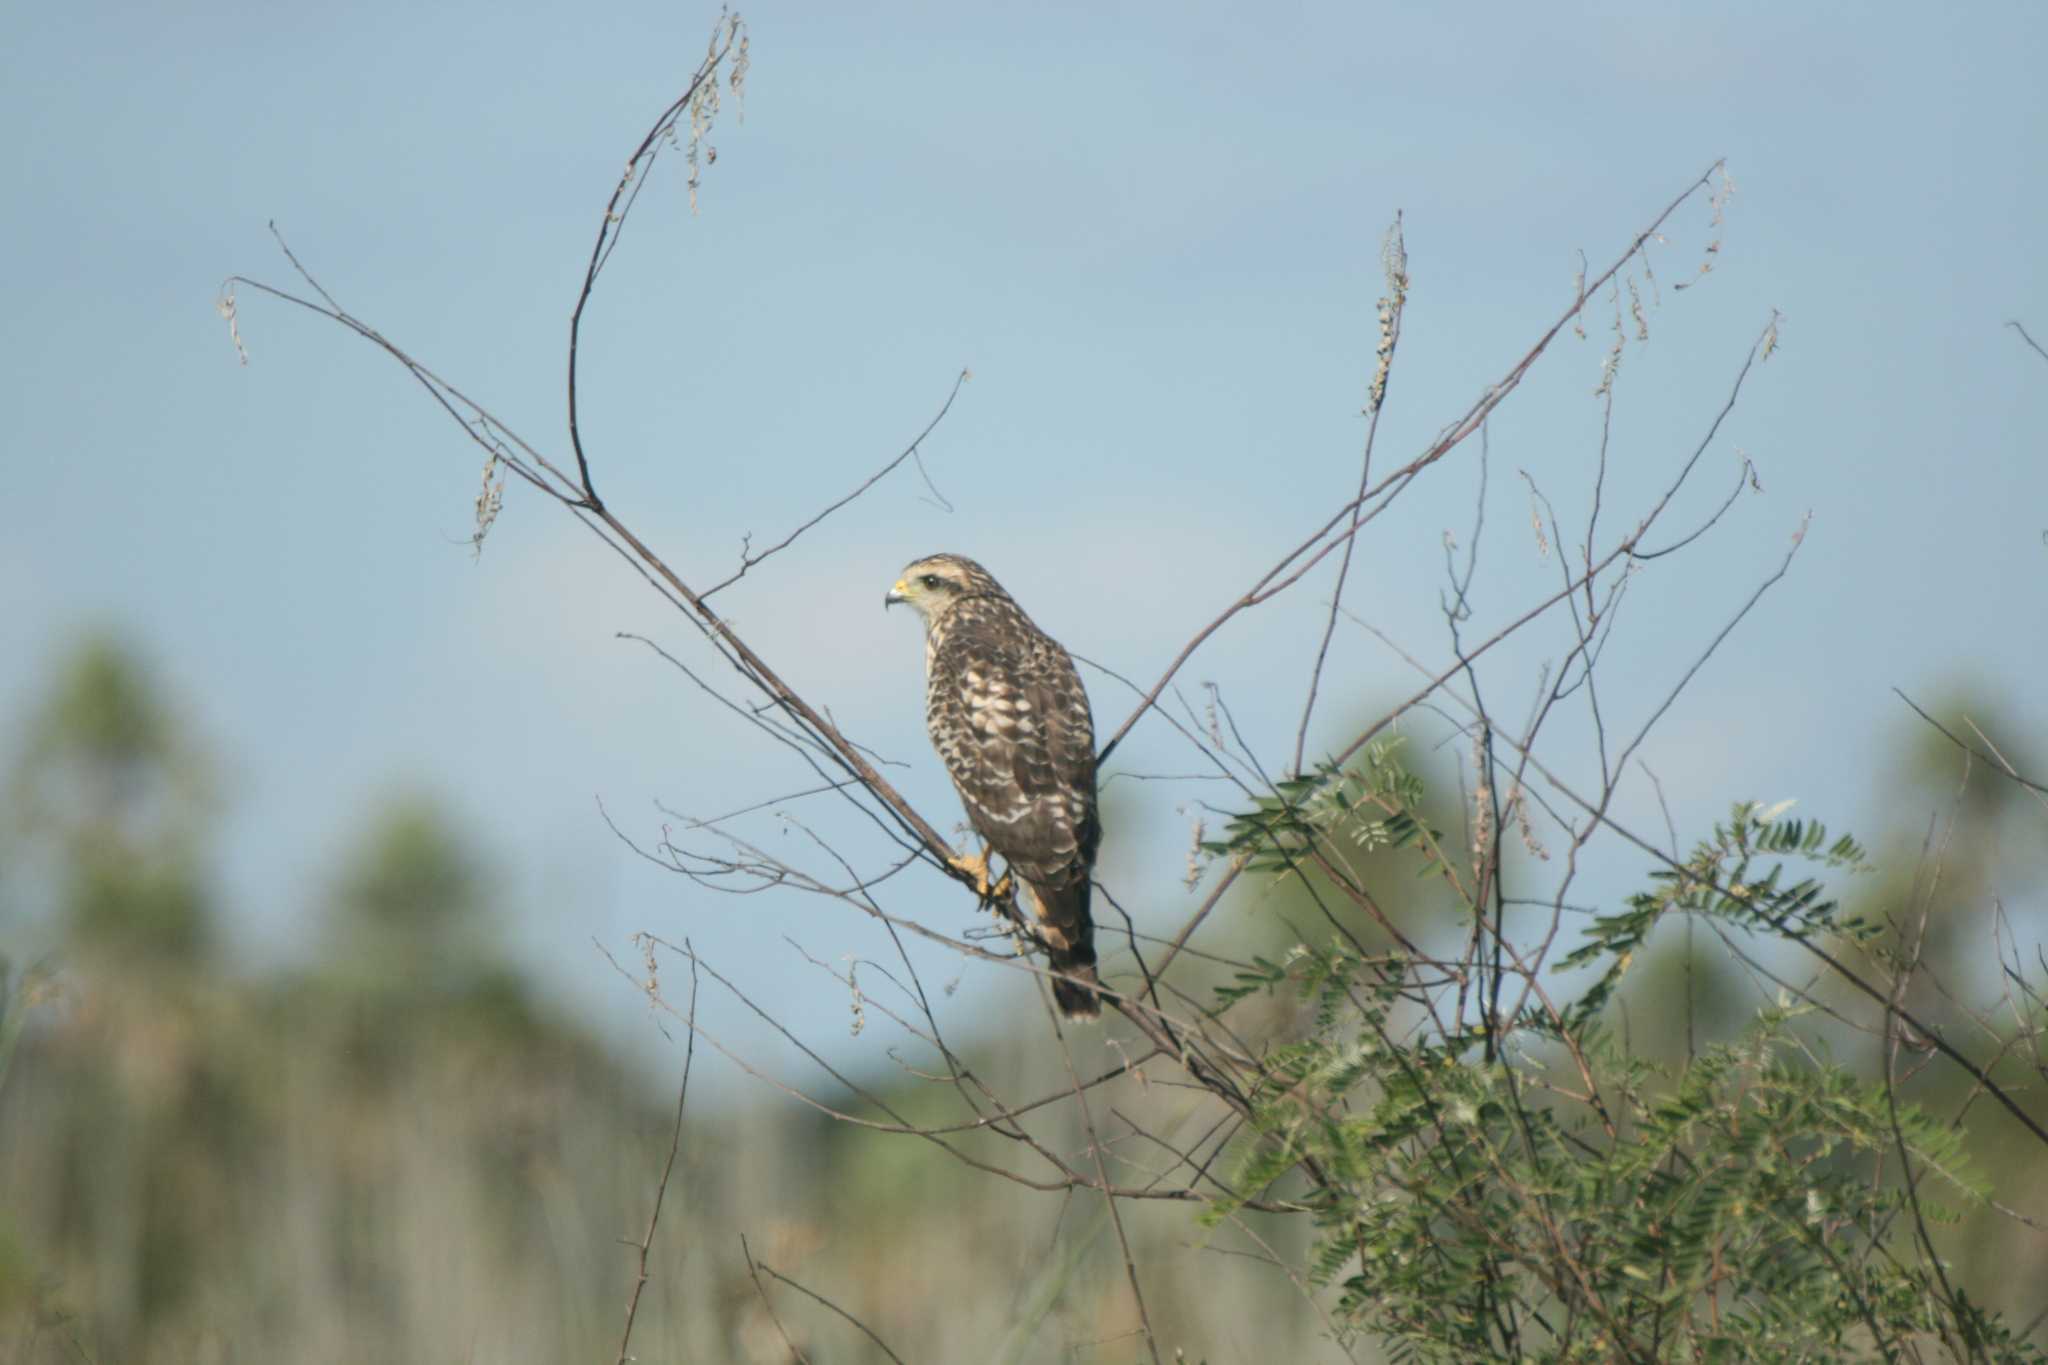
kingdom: Animalia
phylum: Chordata
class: Aves
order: Accipitriformes
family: Accipitridae
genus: Rupornis
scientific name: Rupornis magnirostris
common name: Roadside hawk
